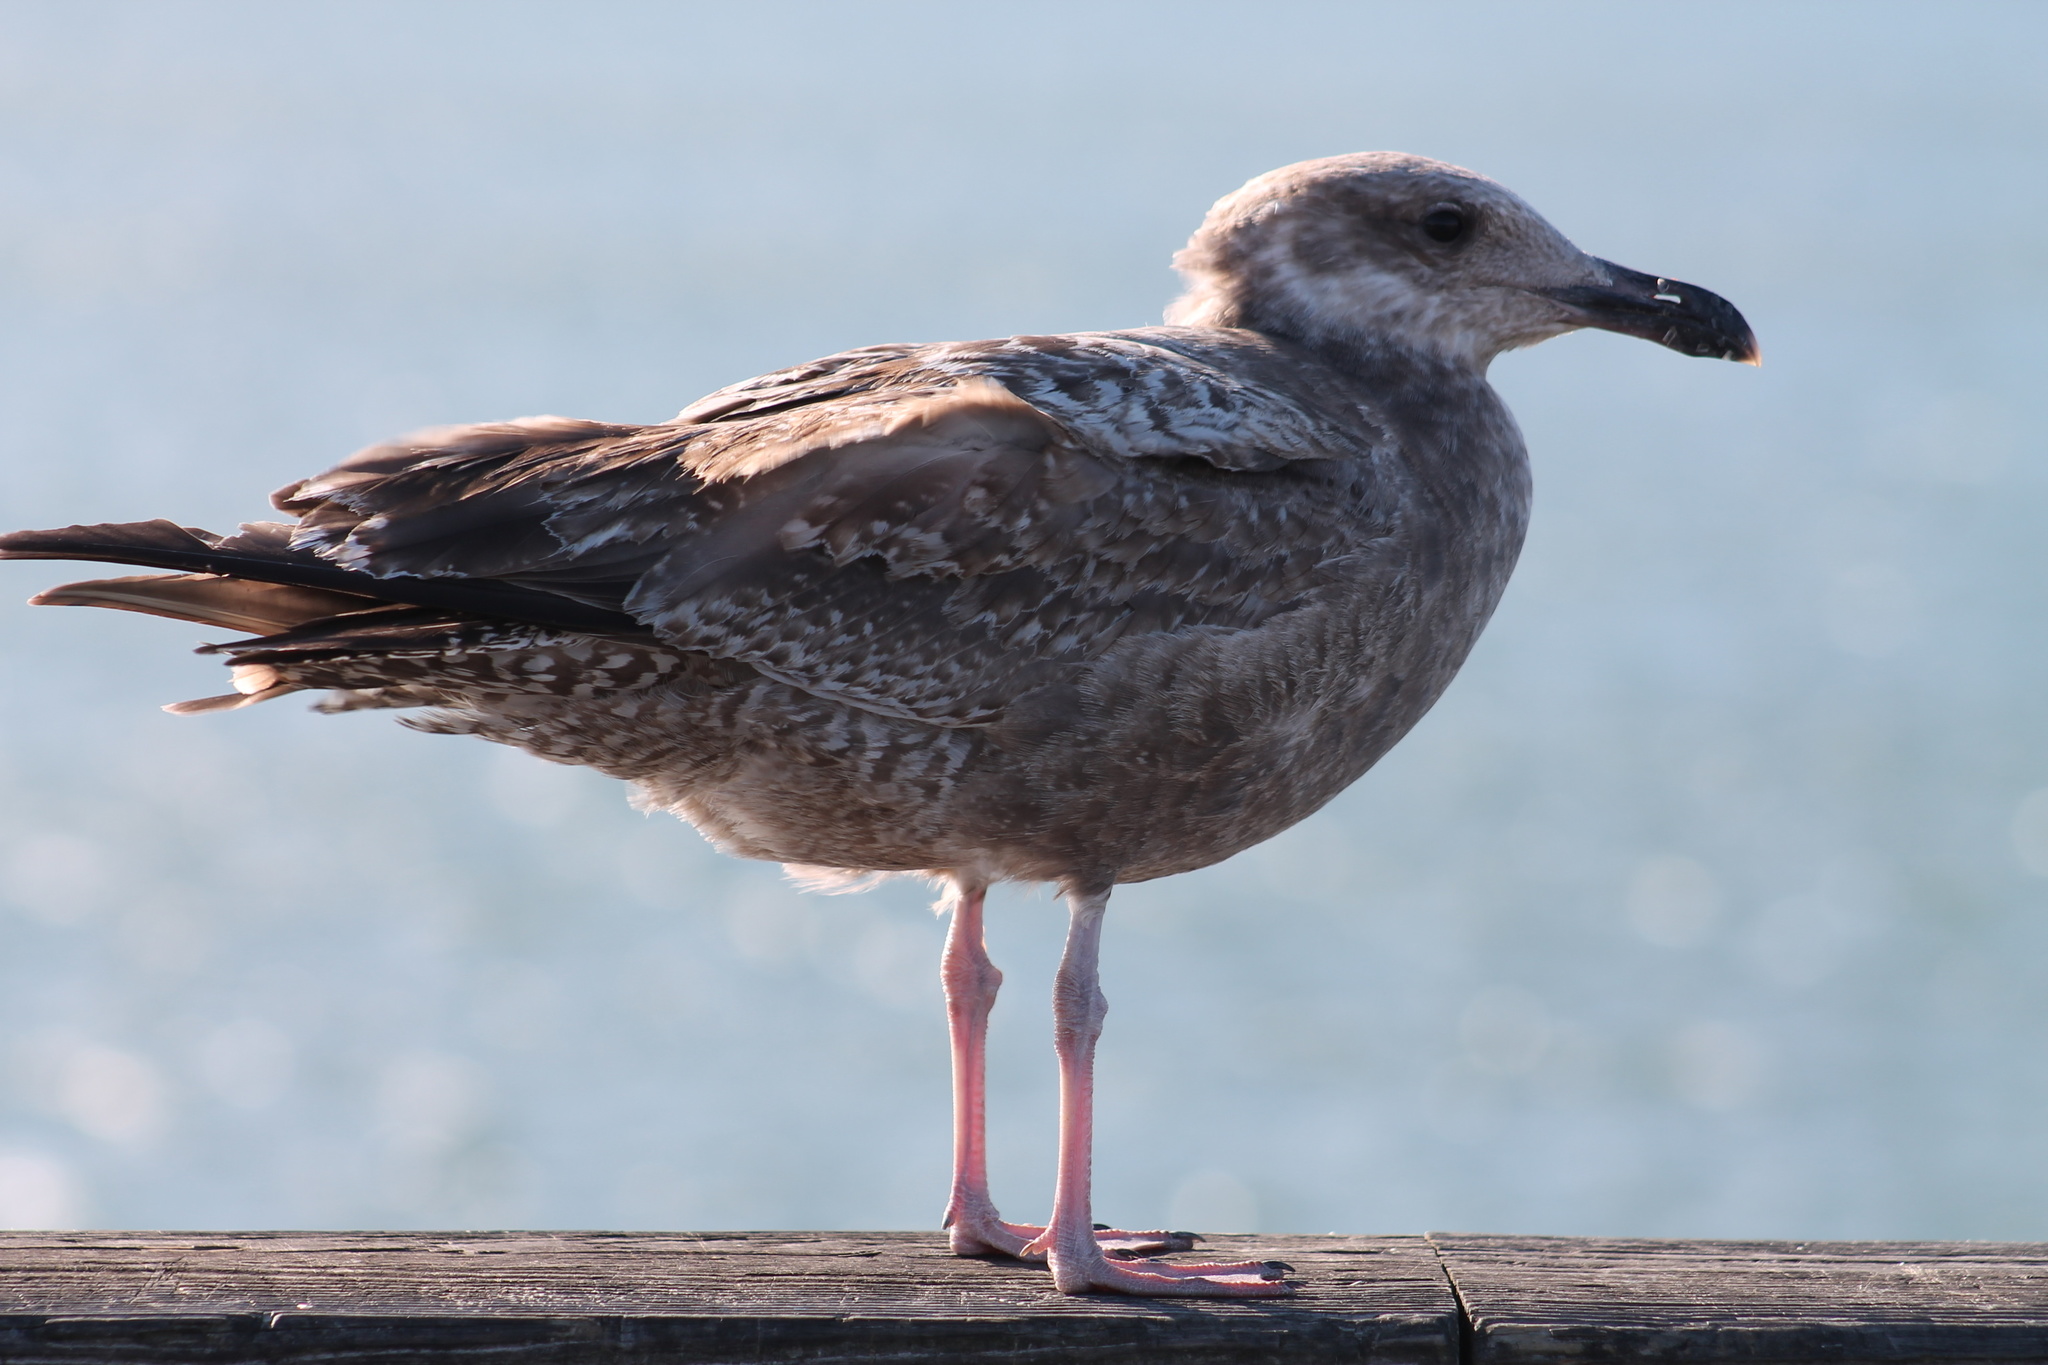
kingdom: Animalia
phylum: Chordata
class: Aves
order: Charadriiformes
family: Laridae
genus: Larus
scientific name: Larus argentatus
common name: Herring gull
